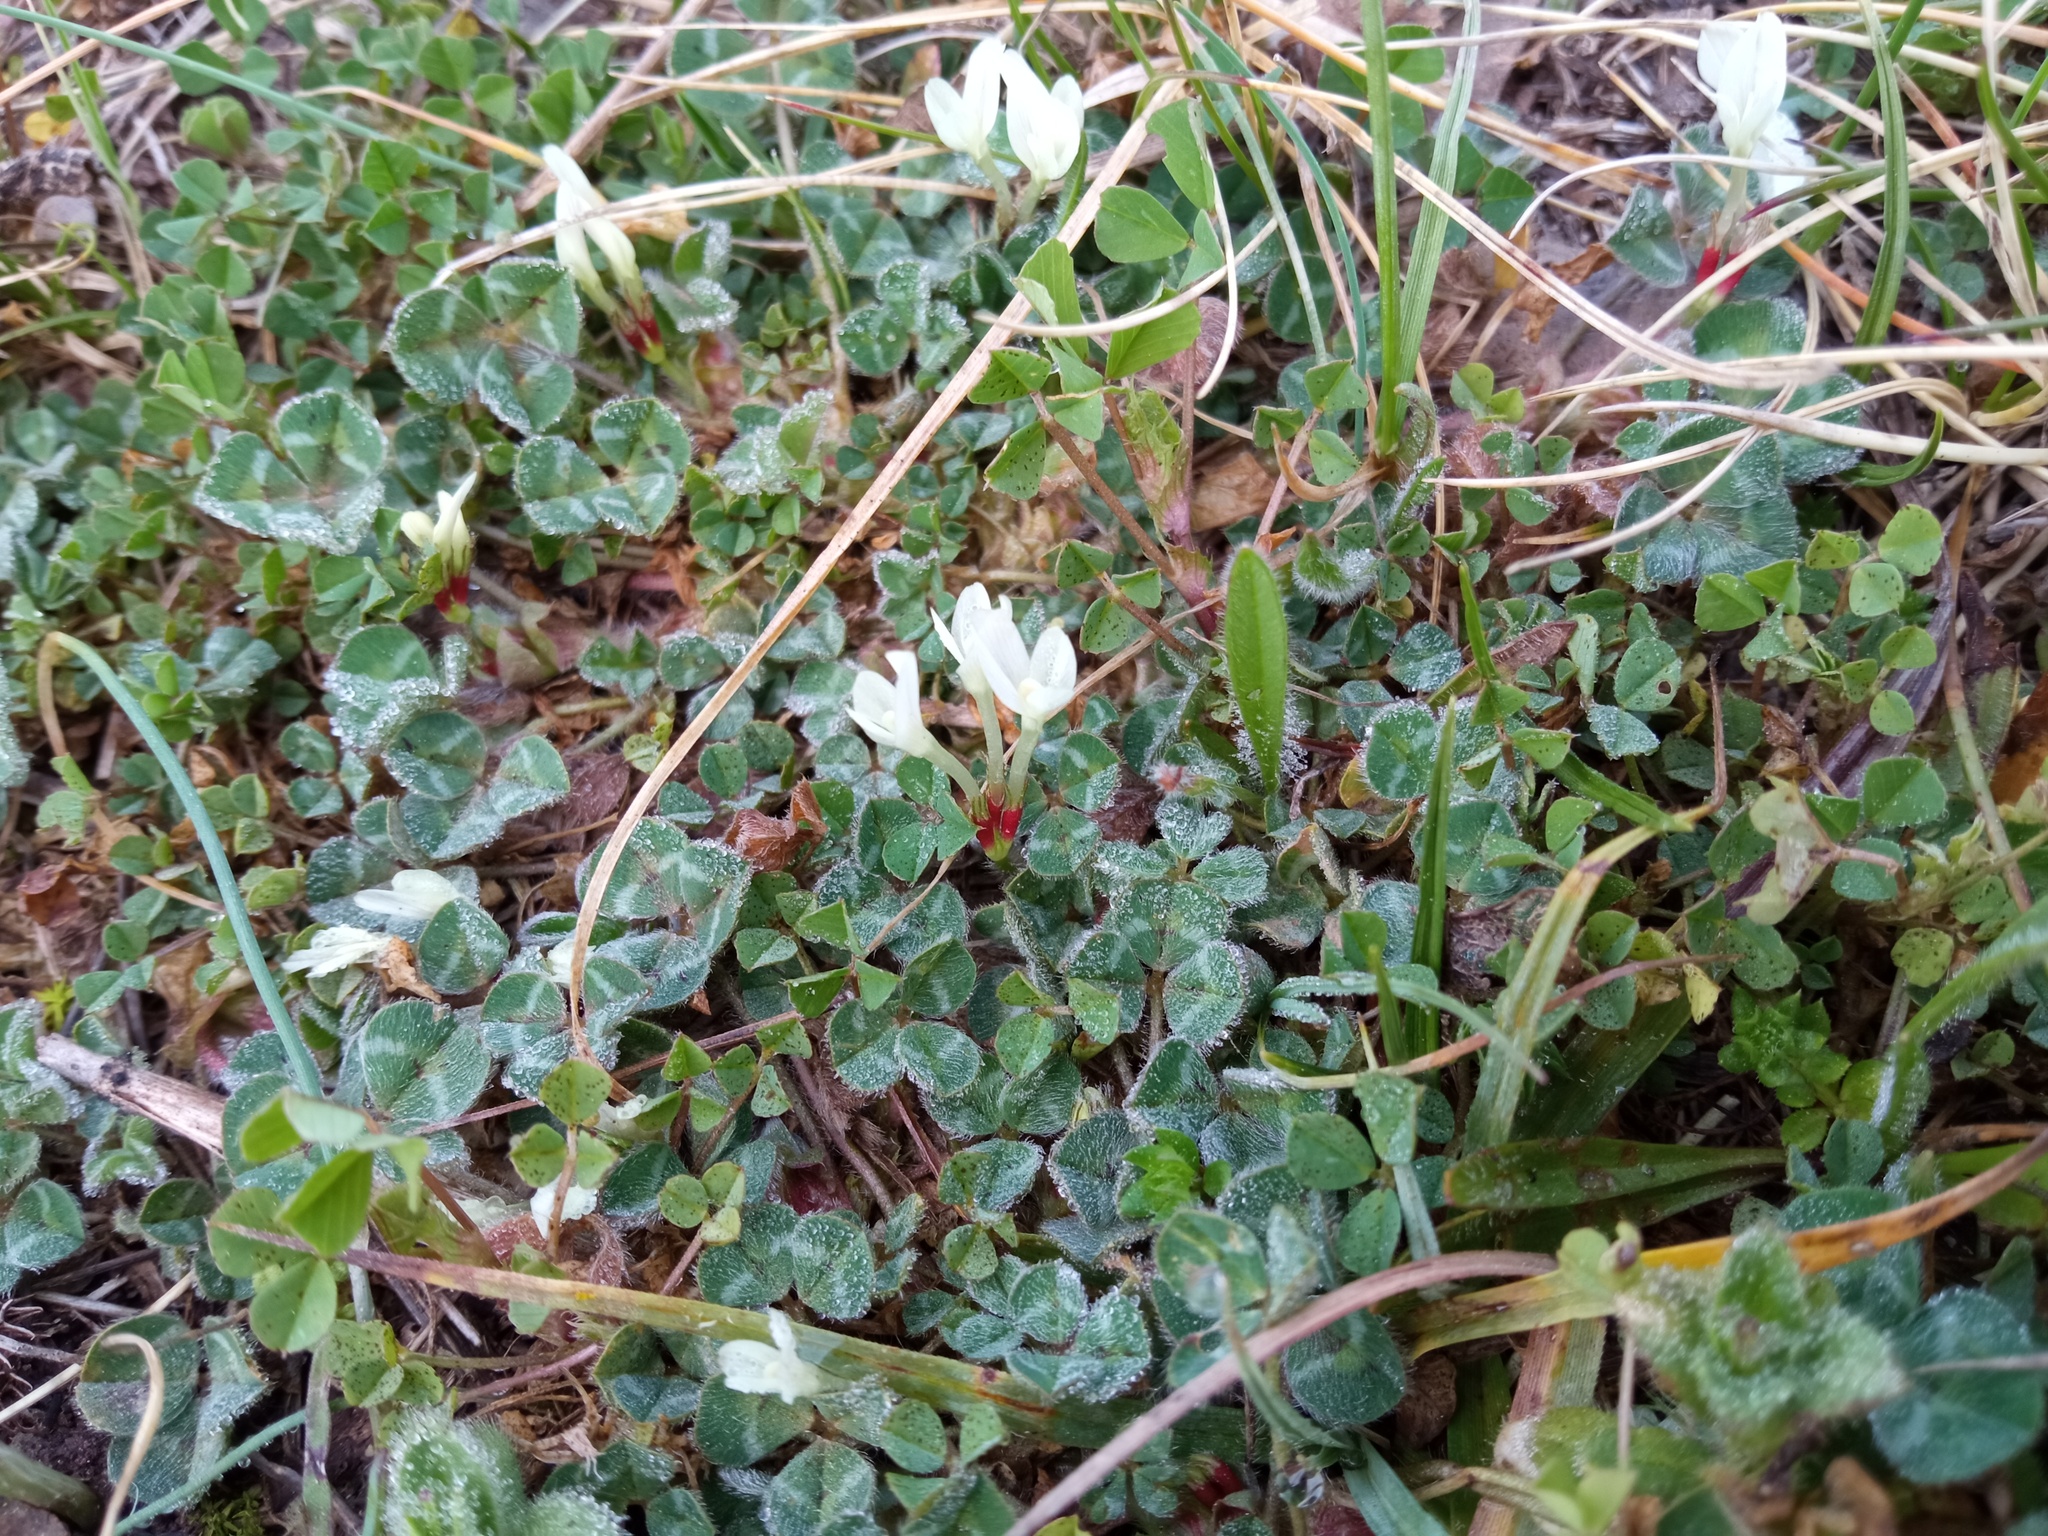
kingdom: Plantae
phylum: Tracheophyta
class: Magnoliopsida
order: Fabales
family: Fabaceae
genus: Trifolium
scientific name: Trifolium subterraneum
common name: Subterranean clover
